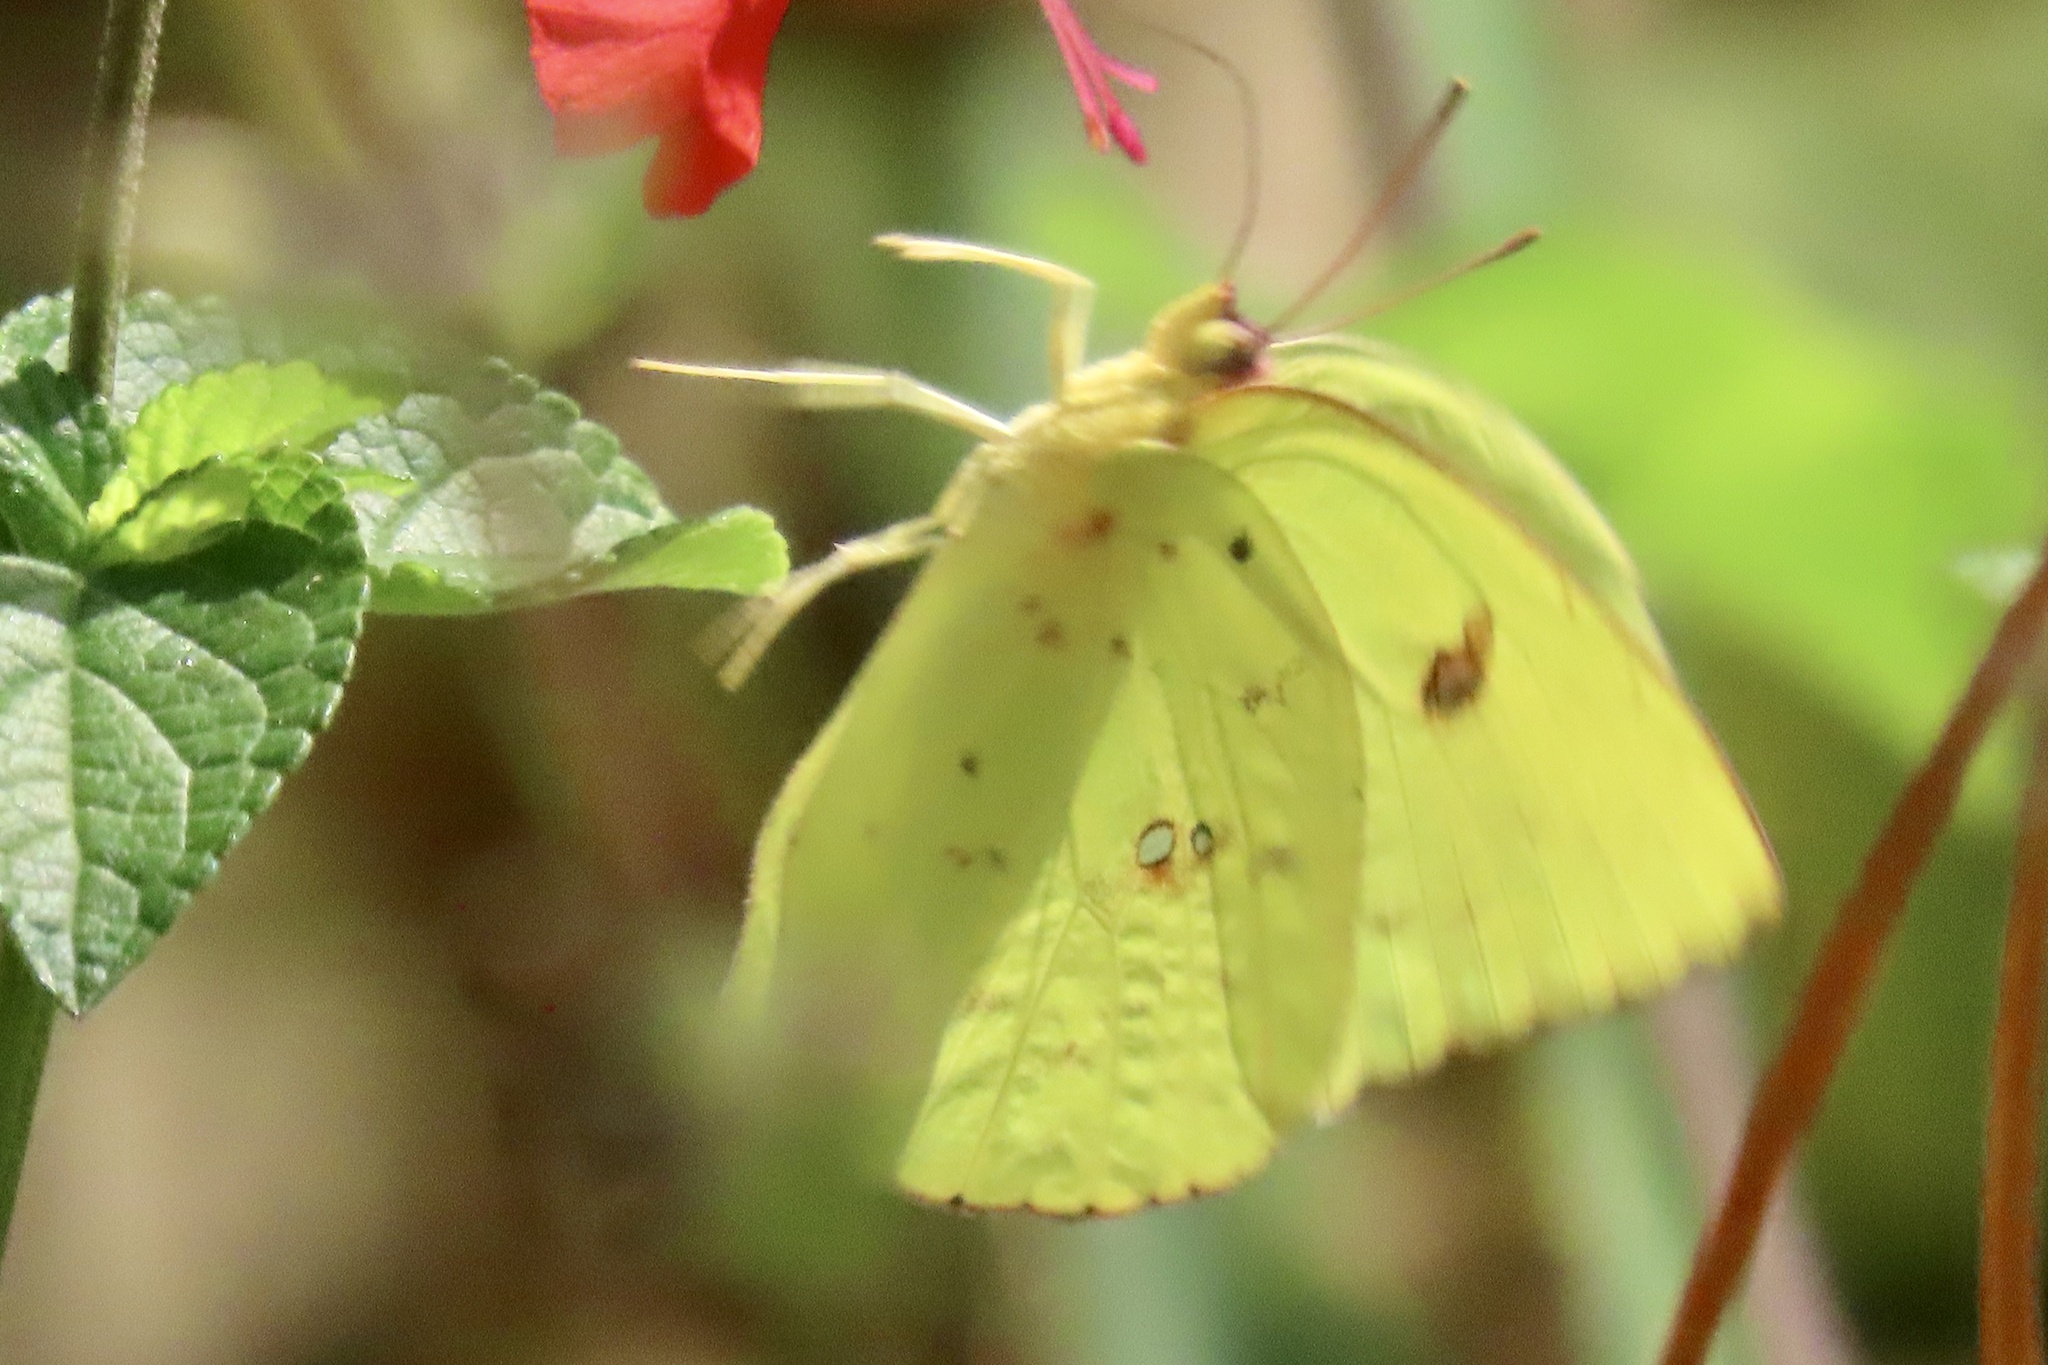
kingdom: Animalia
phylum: Arthropoda
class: Insecta
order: Lepidoptera
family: Pieridae
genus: Phoebis
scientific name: Phoebis sennae
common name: Cloudless sulphur
